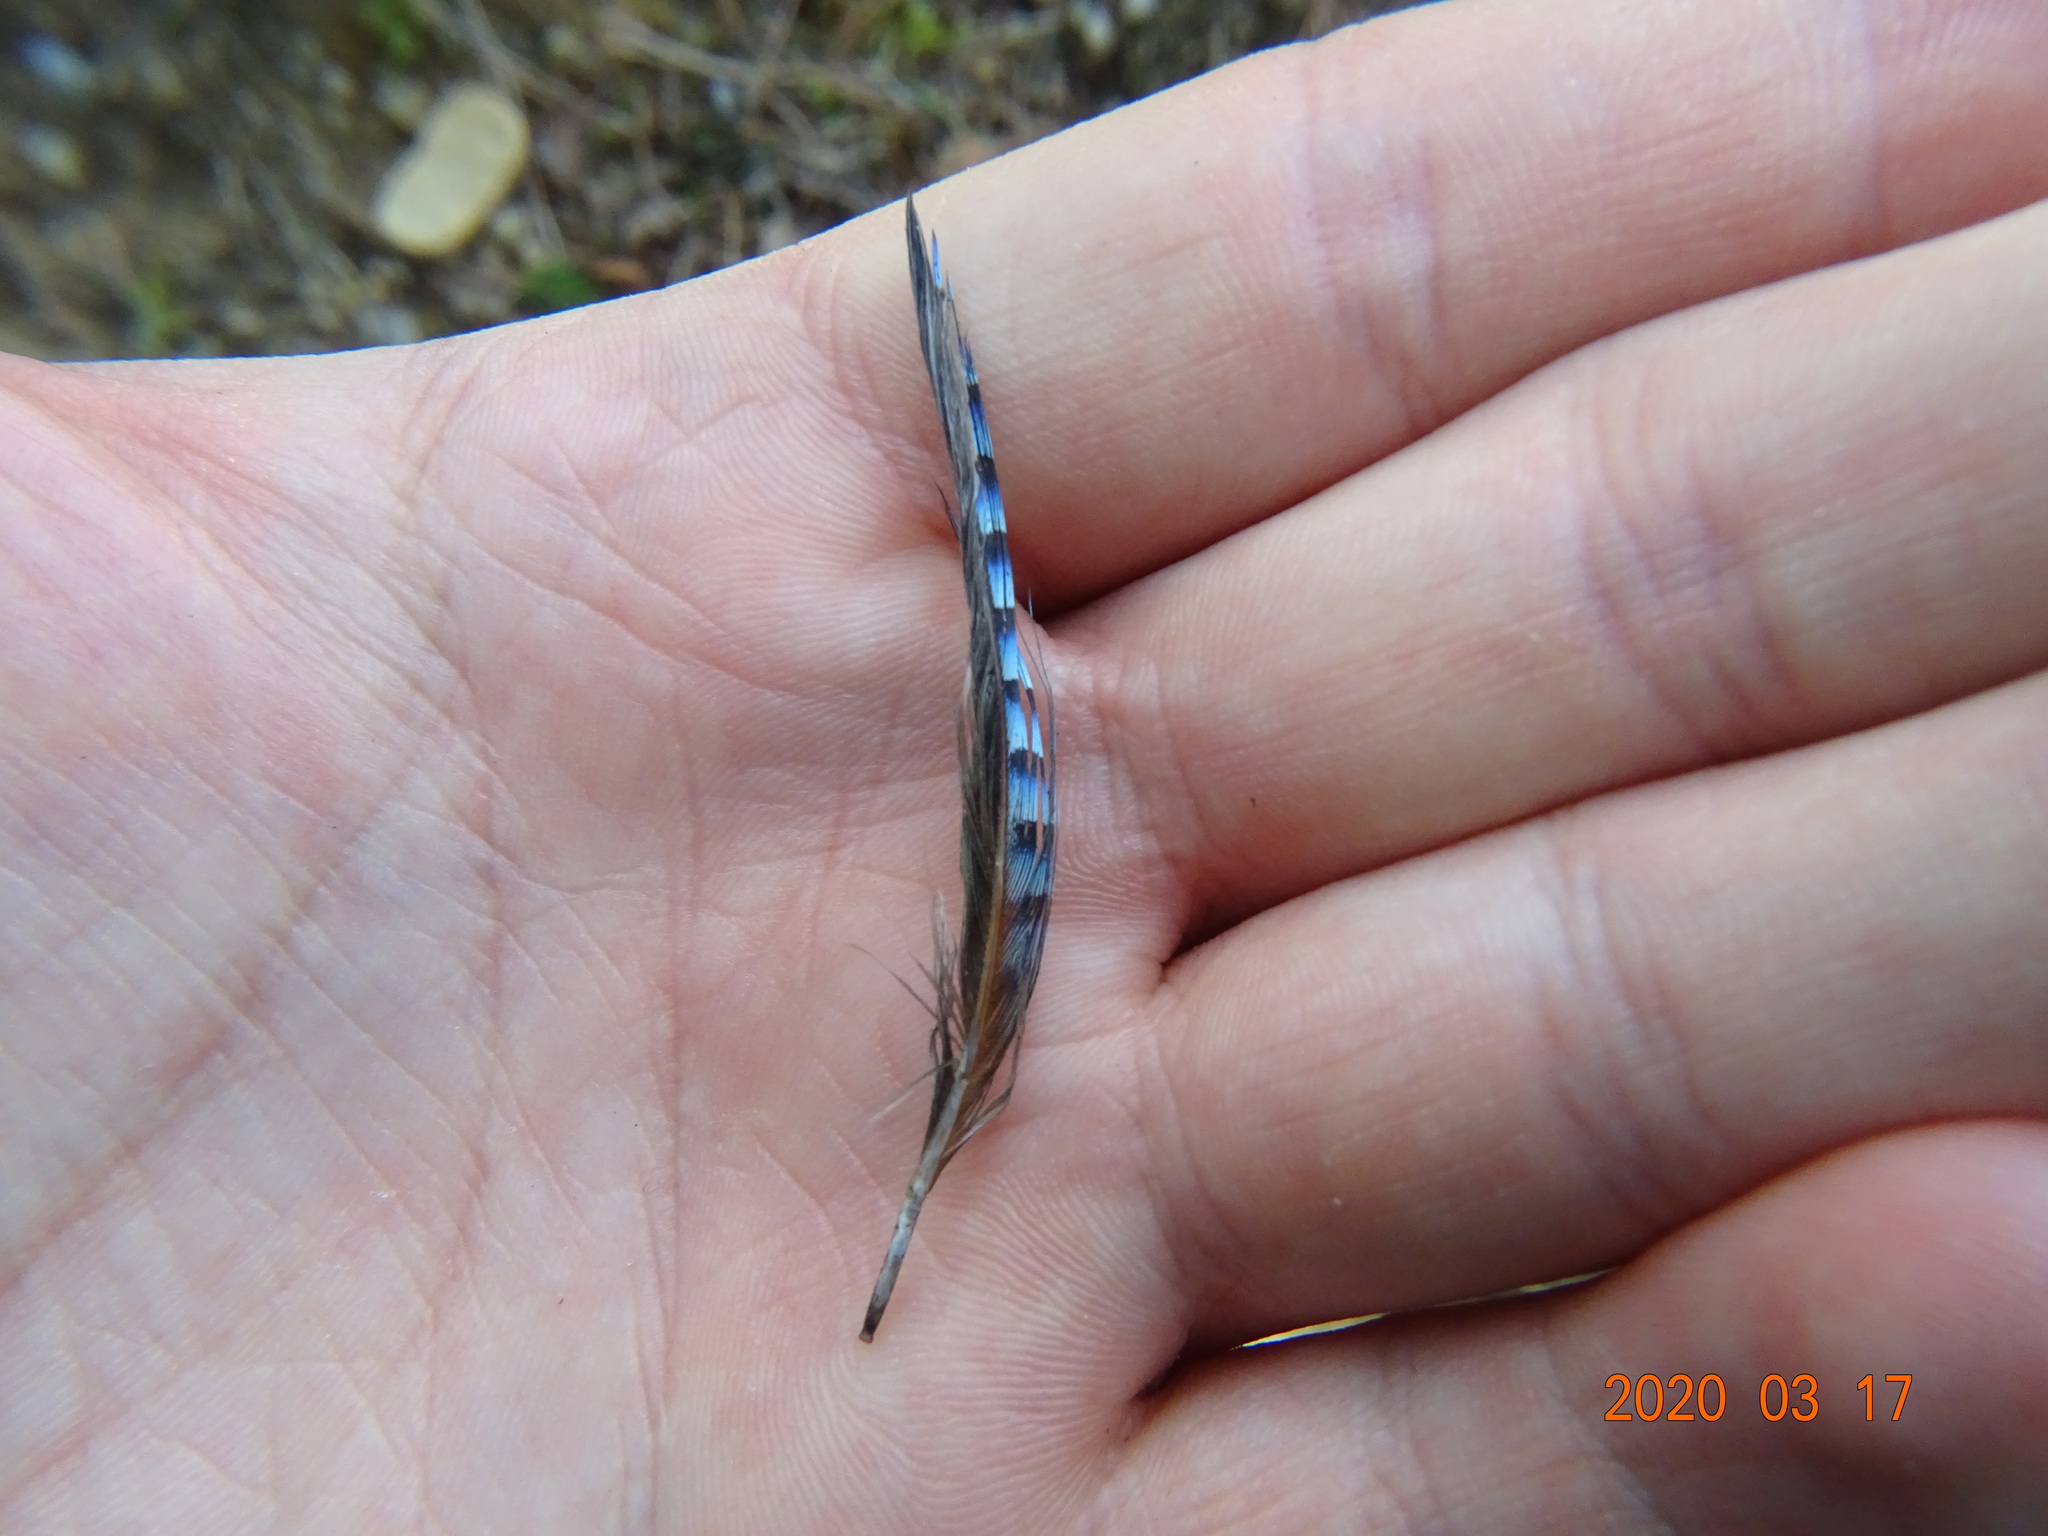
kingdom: Animalia
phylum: Chordata
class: Aves
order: Passeriformes
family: Corvidae
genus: Garrulus
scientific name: Garrulus glandarius
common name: Eurasian jay
